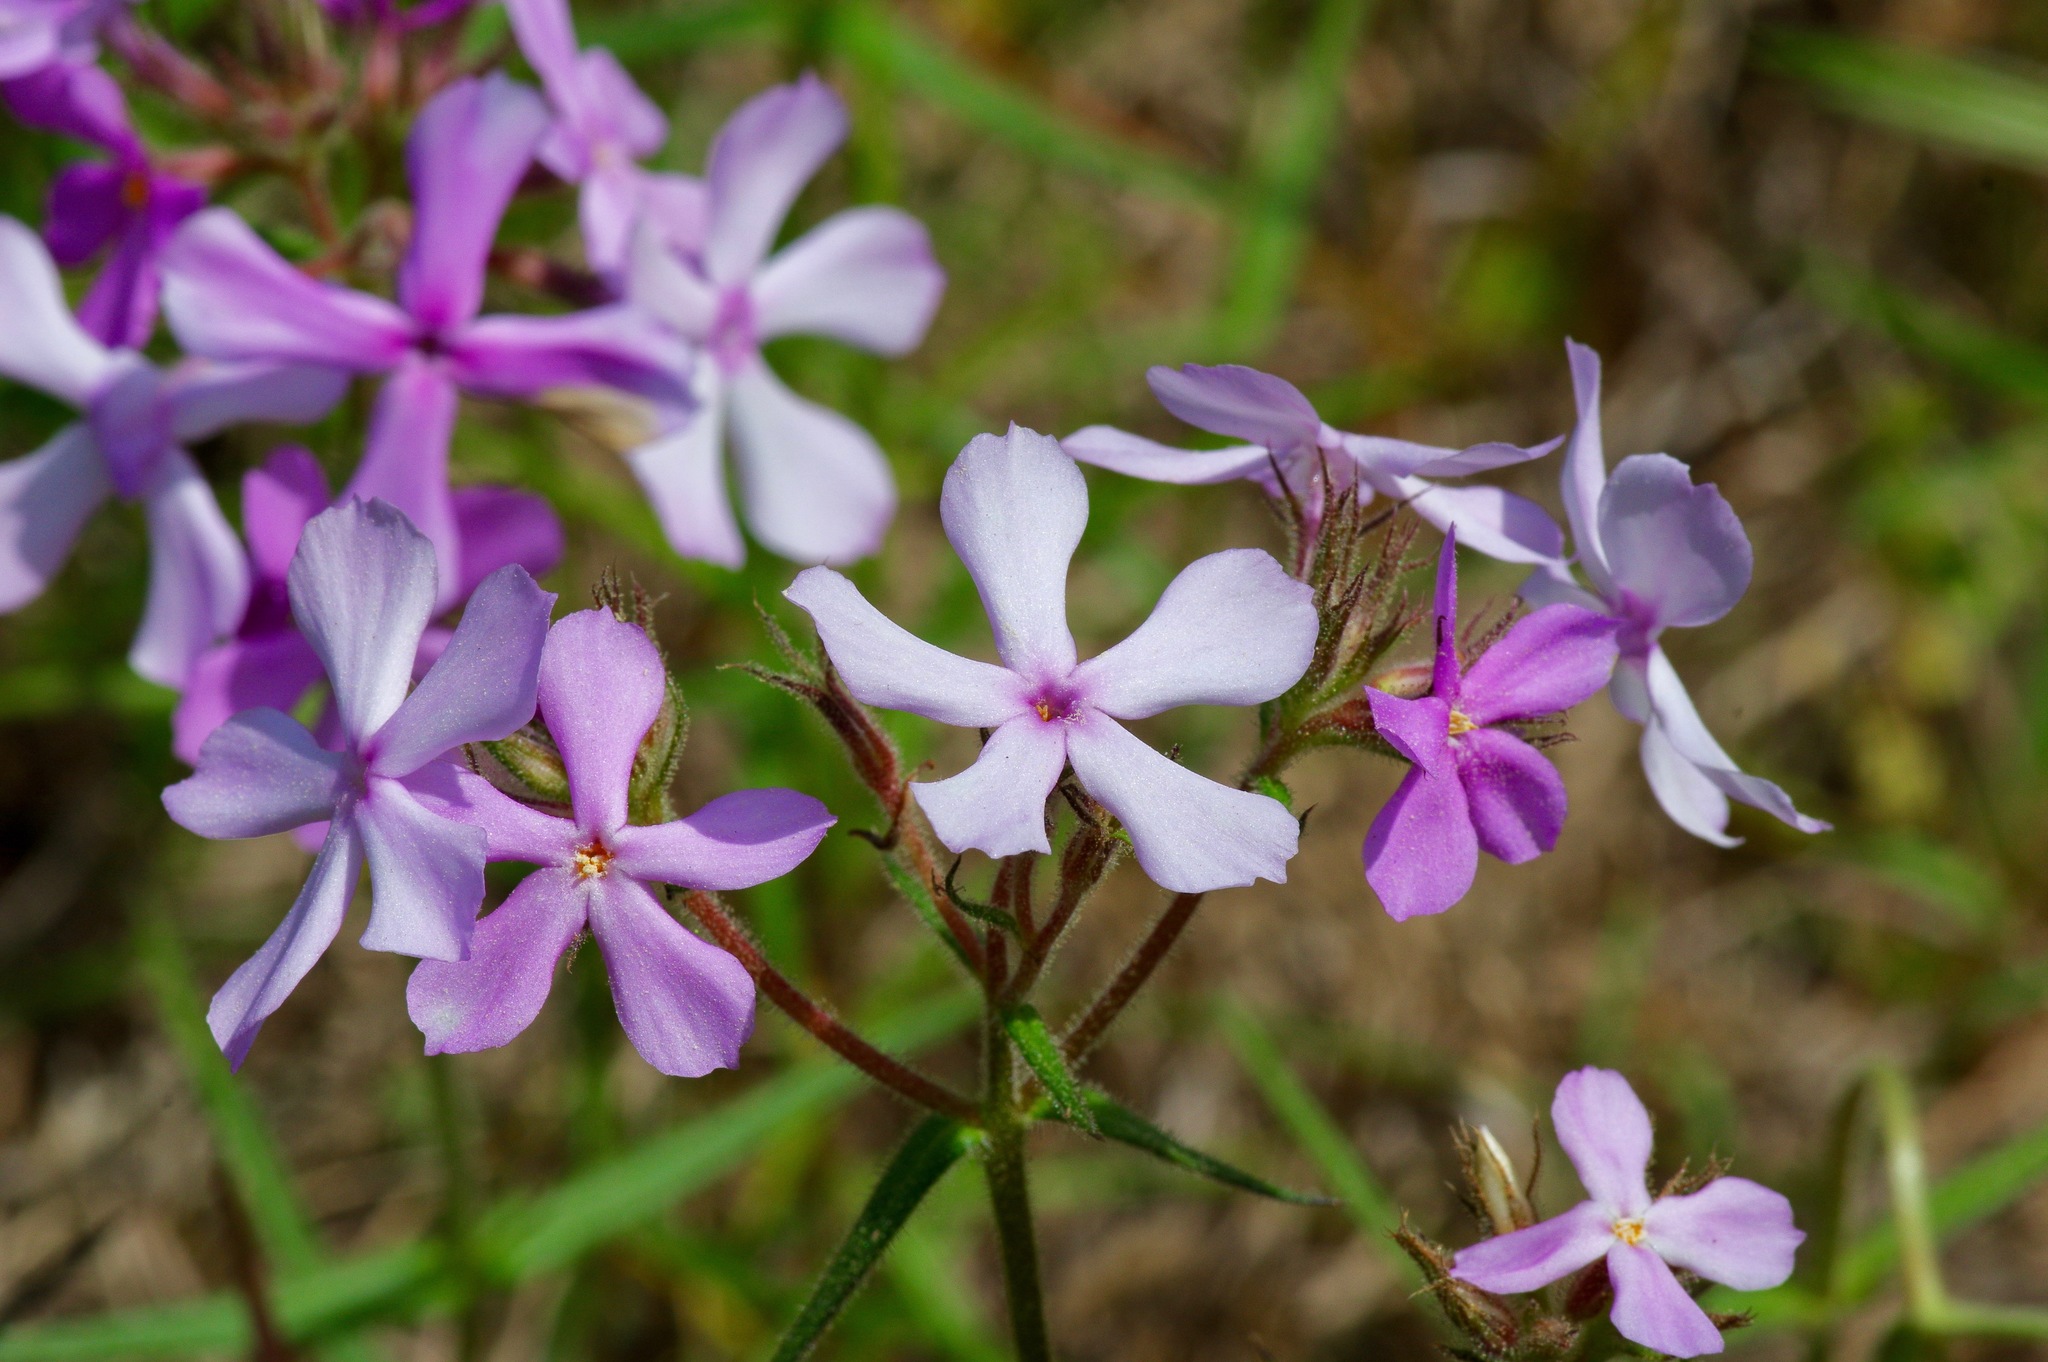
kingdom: Plantae
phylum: Tracheophyta
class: Magnoliopsida
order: Ericales
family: Polemoniaceae
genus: Phlox
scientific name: Phlox pilosa
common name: Prairie phlox
